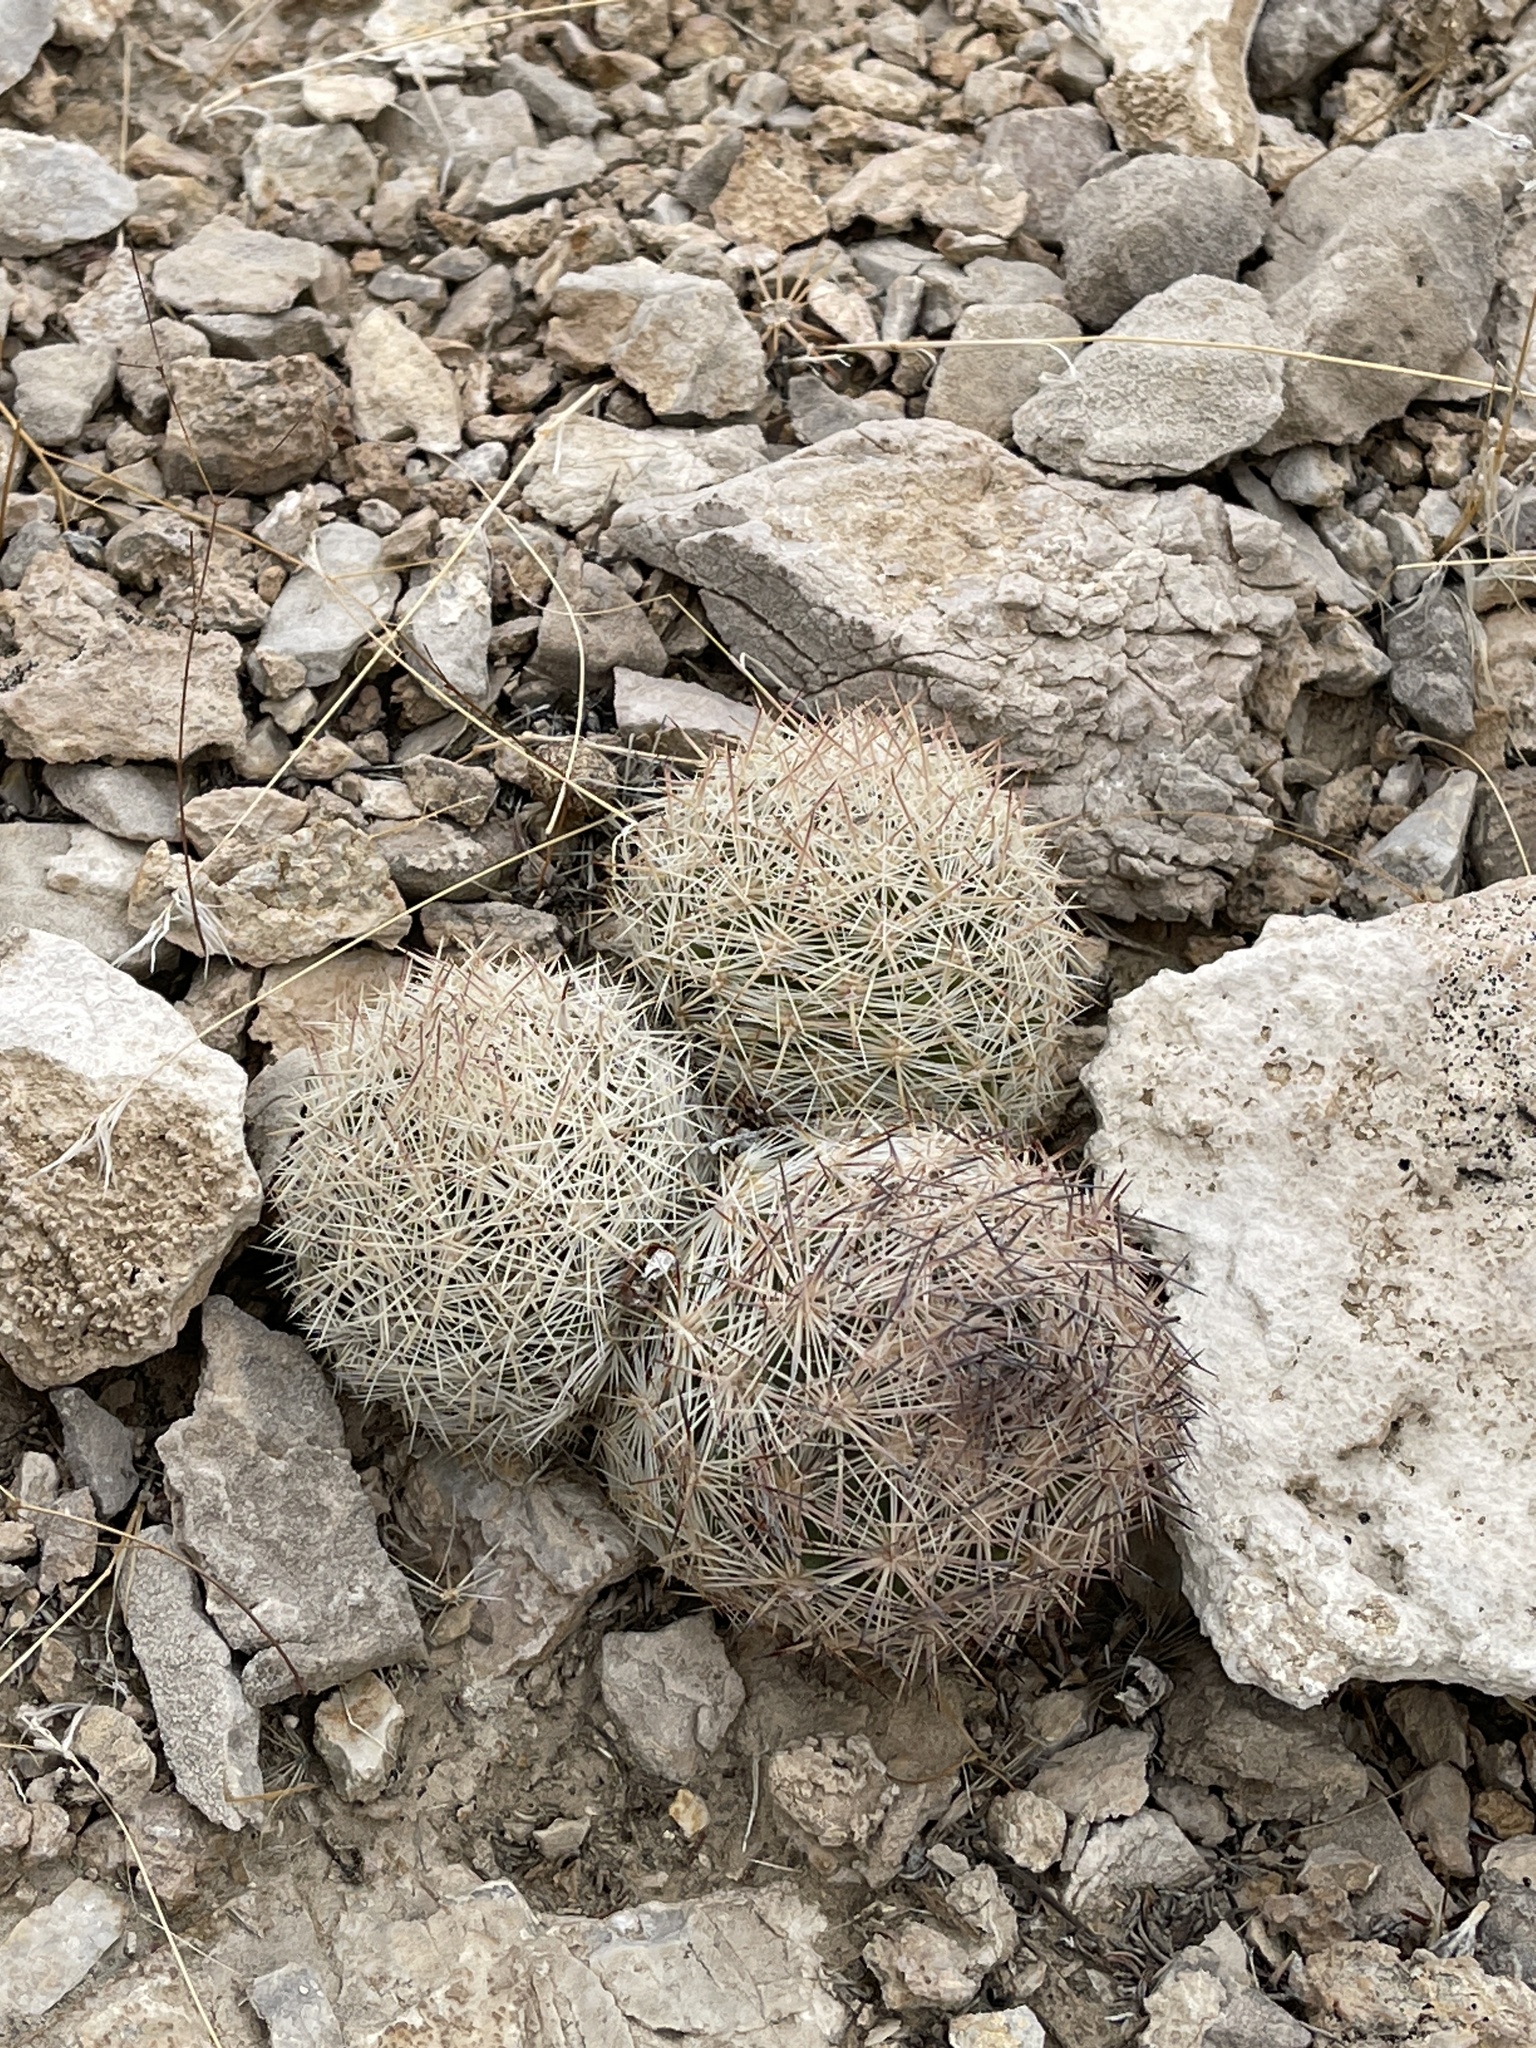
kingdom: Plantae
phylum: Tracheophyta
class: Magnoliopsida
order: Caryophyllales
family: Cactaceae
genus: Pelecyphora
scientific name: Pelecyphora dasyacantha
